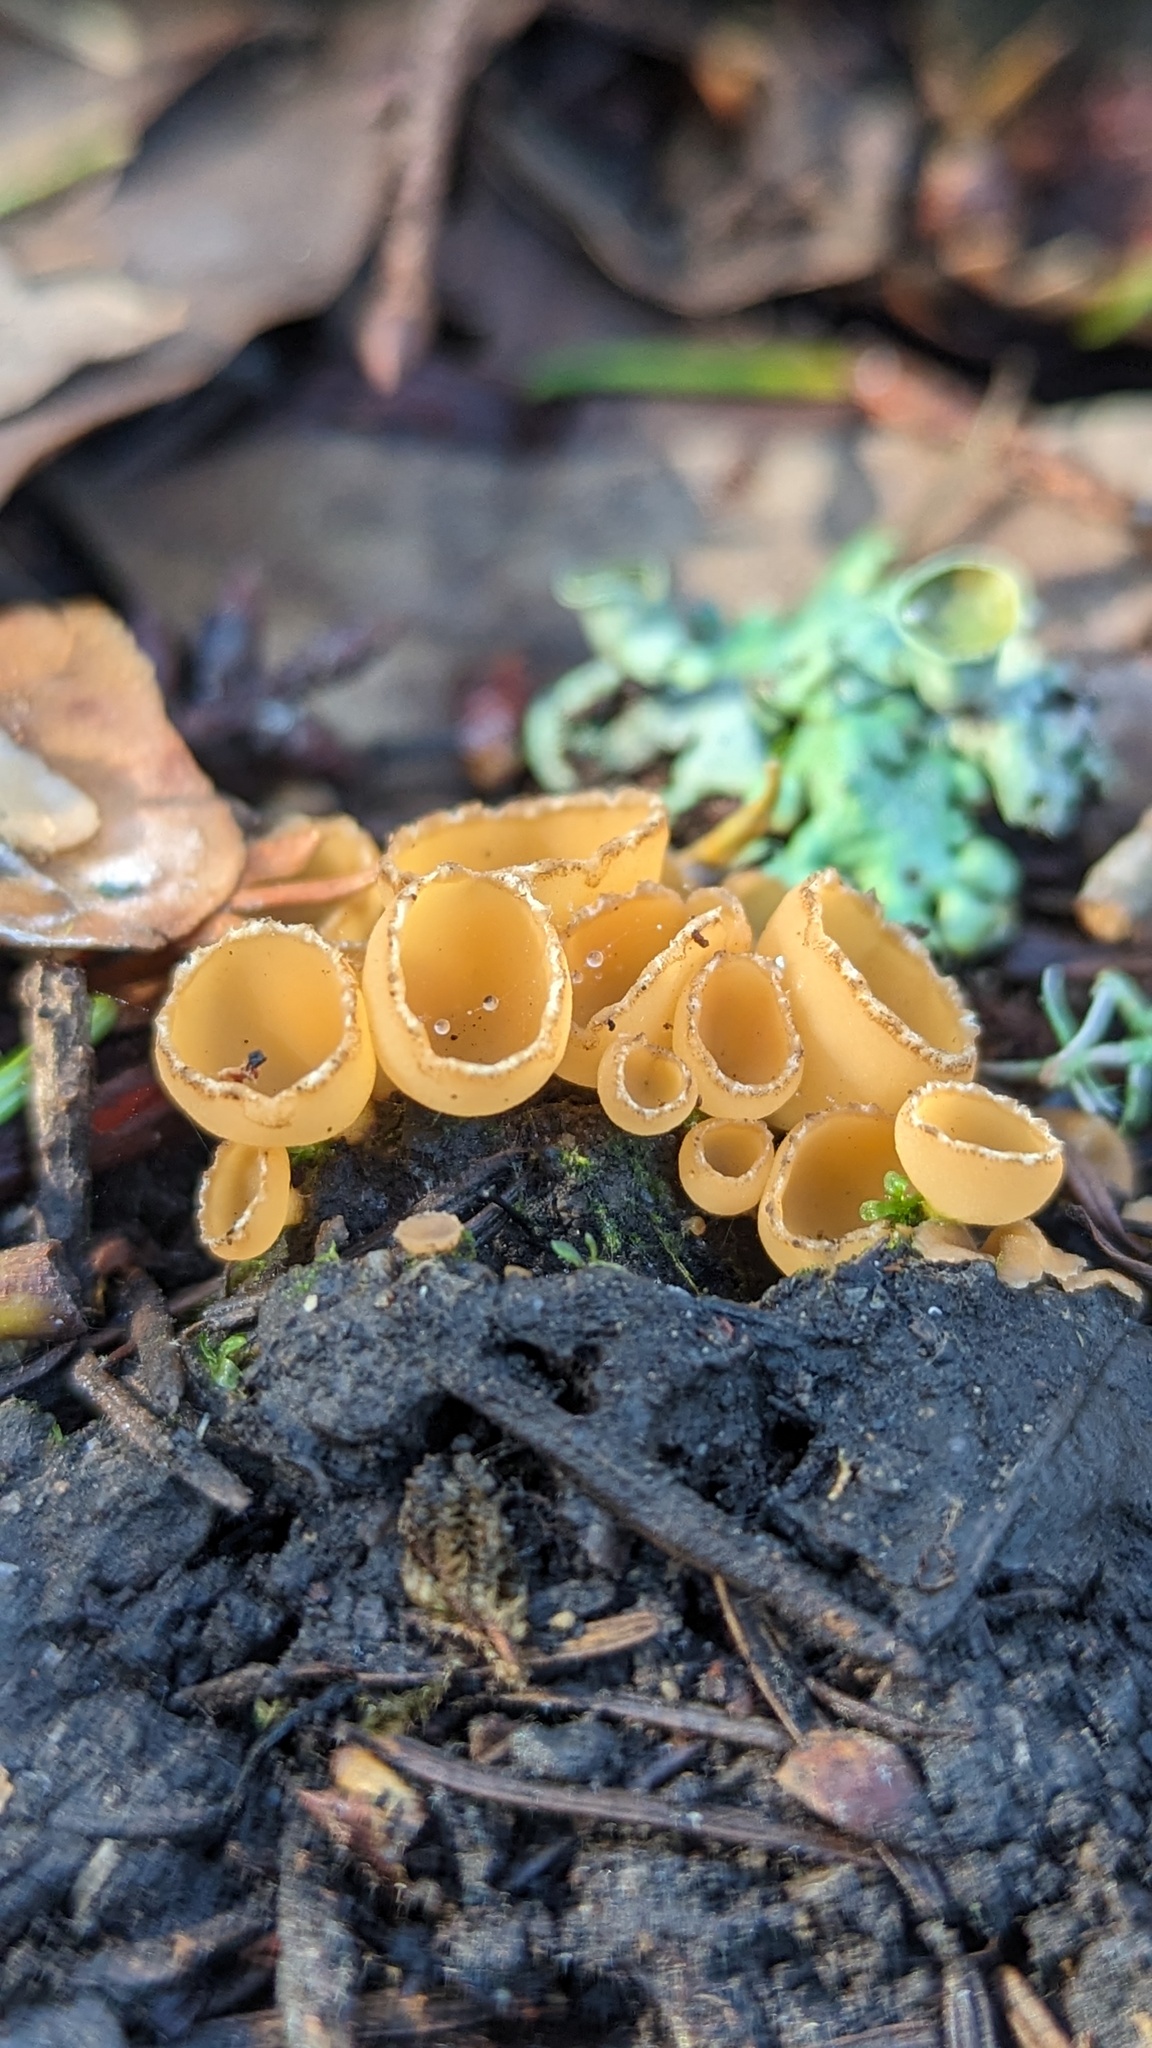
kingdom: Fungi
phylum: Ascomycota
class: Pezizomycetes
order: Pezizales
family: Pyronemataceae
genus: Geopyxis
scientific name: Geopyxis carbonaria
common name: Stalked bonfire cup
